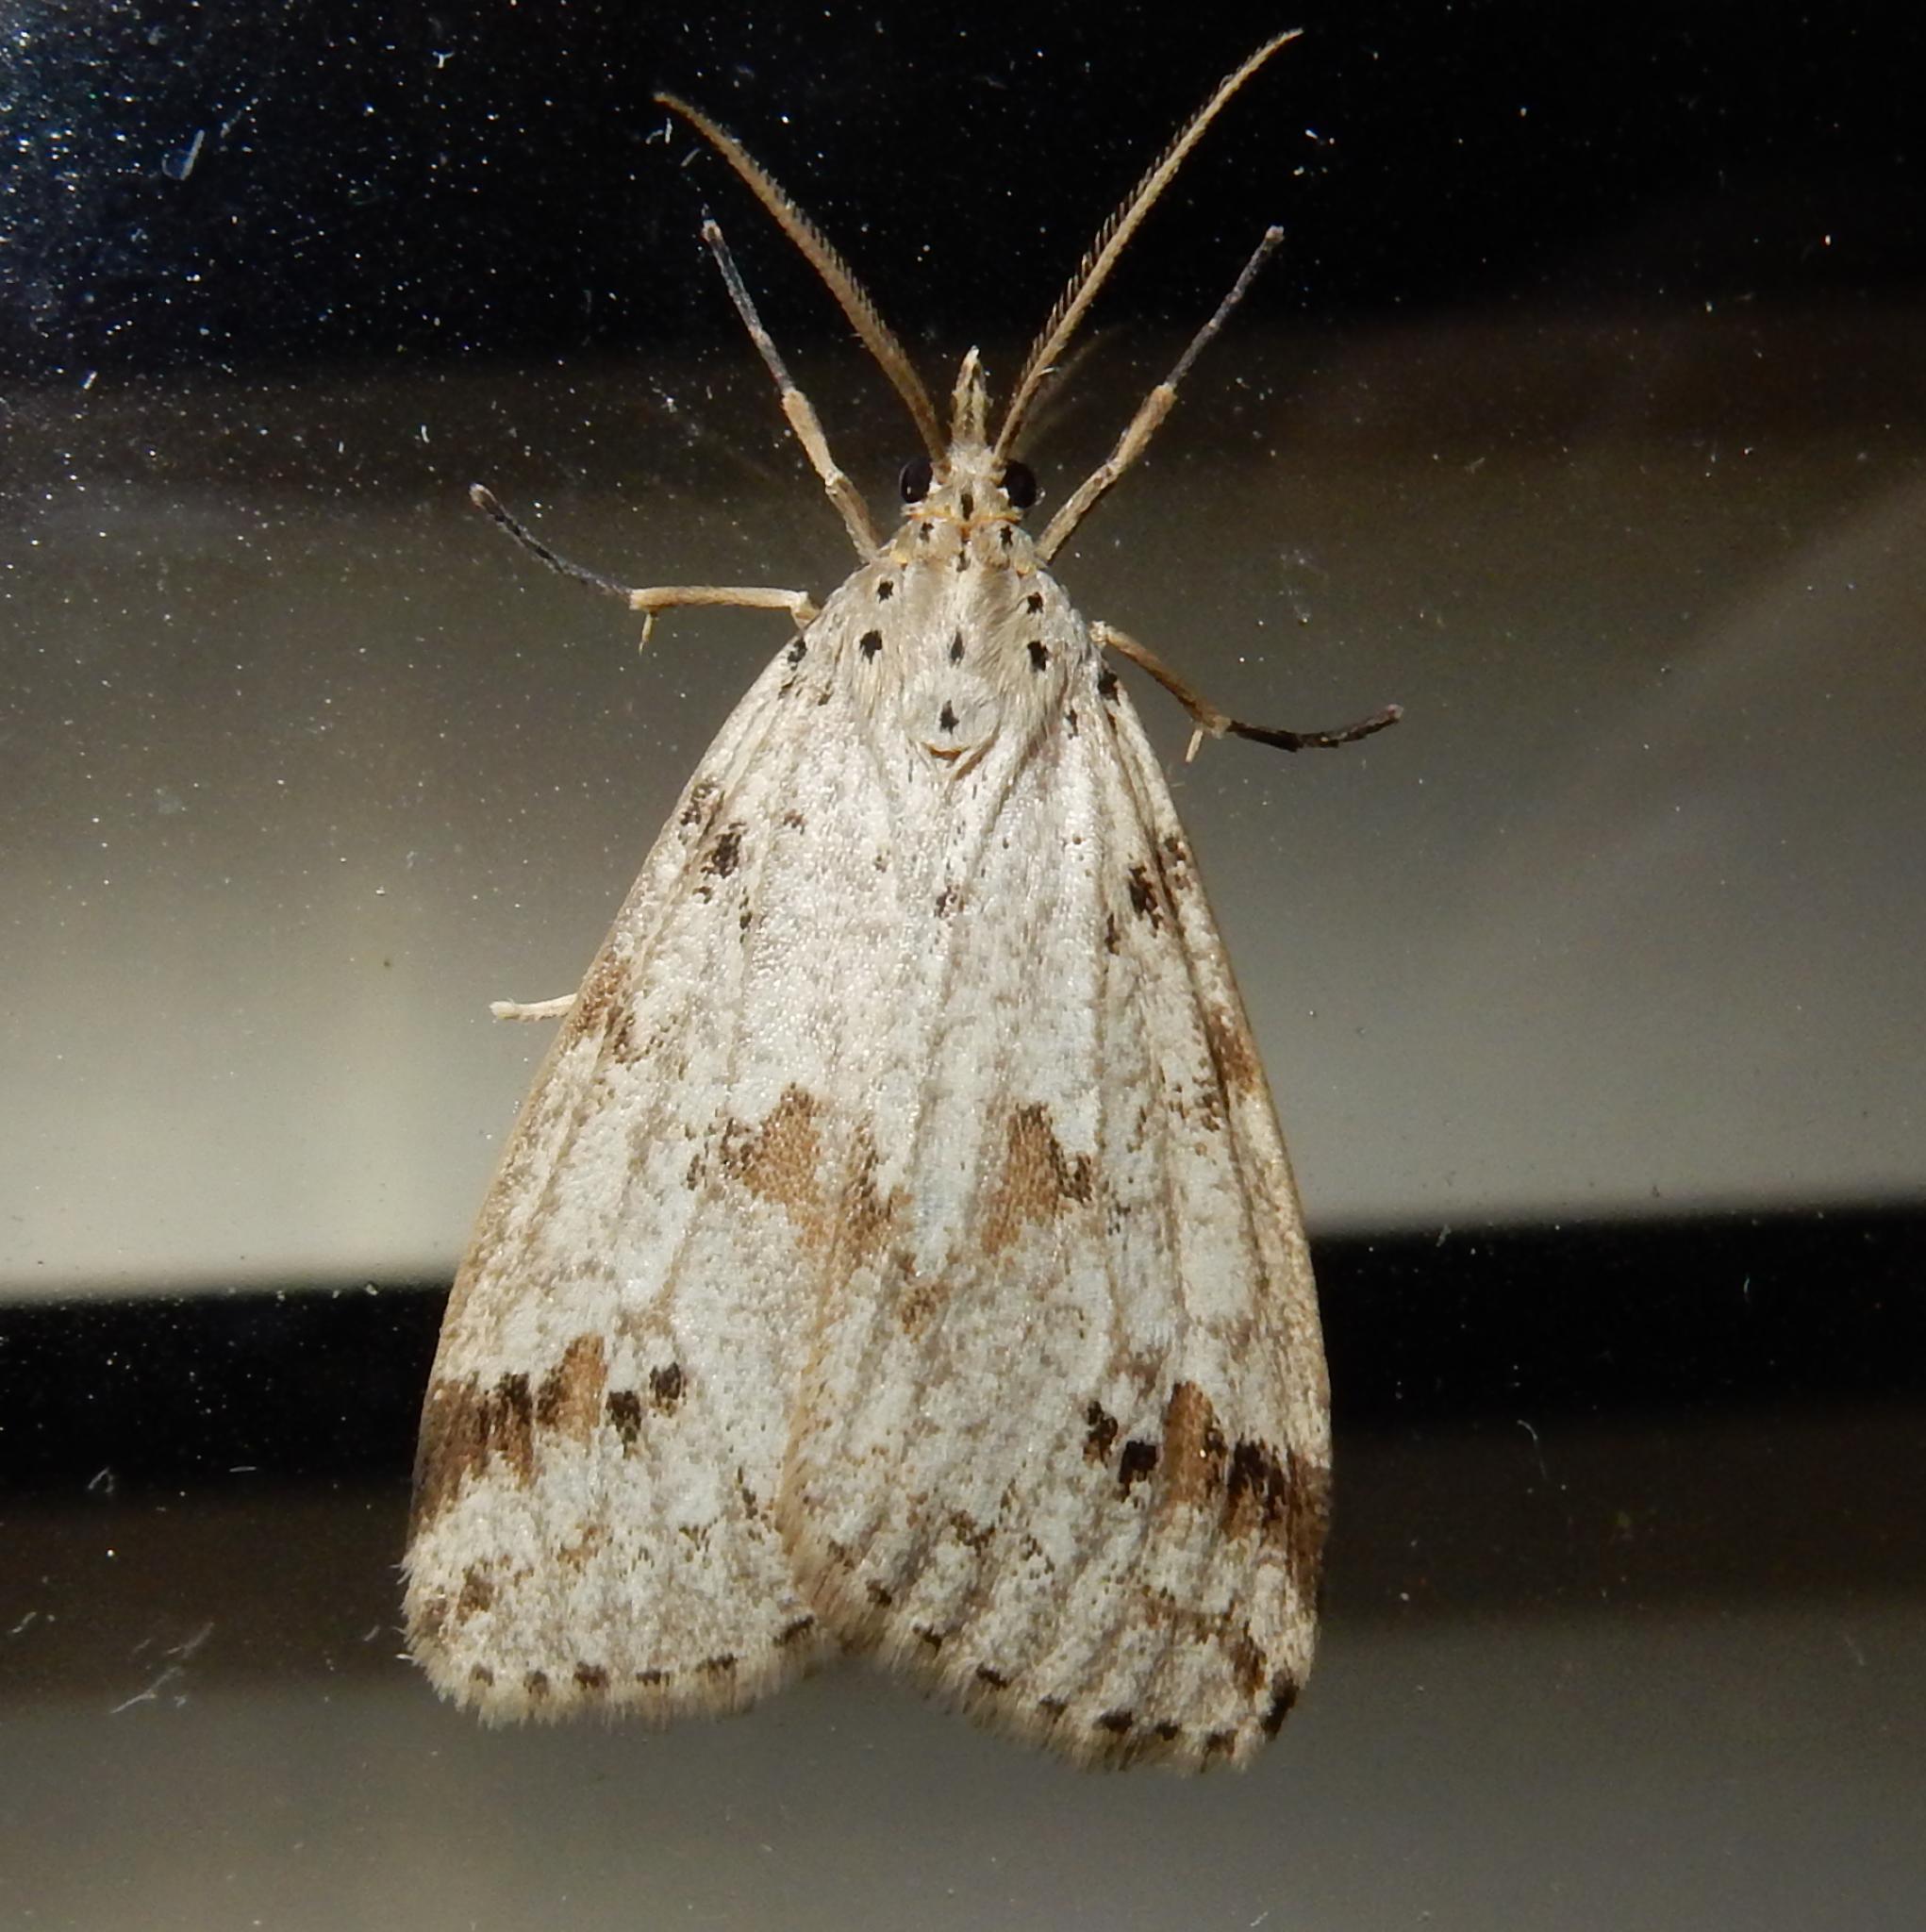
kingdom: Animalia
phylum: Arthropoda
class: Insecta
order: Lepidoptera
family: Erebidae
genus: Galtara
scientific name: Galtara rostrata
